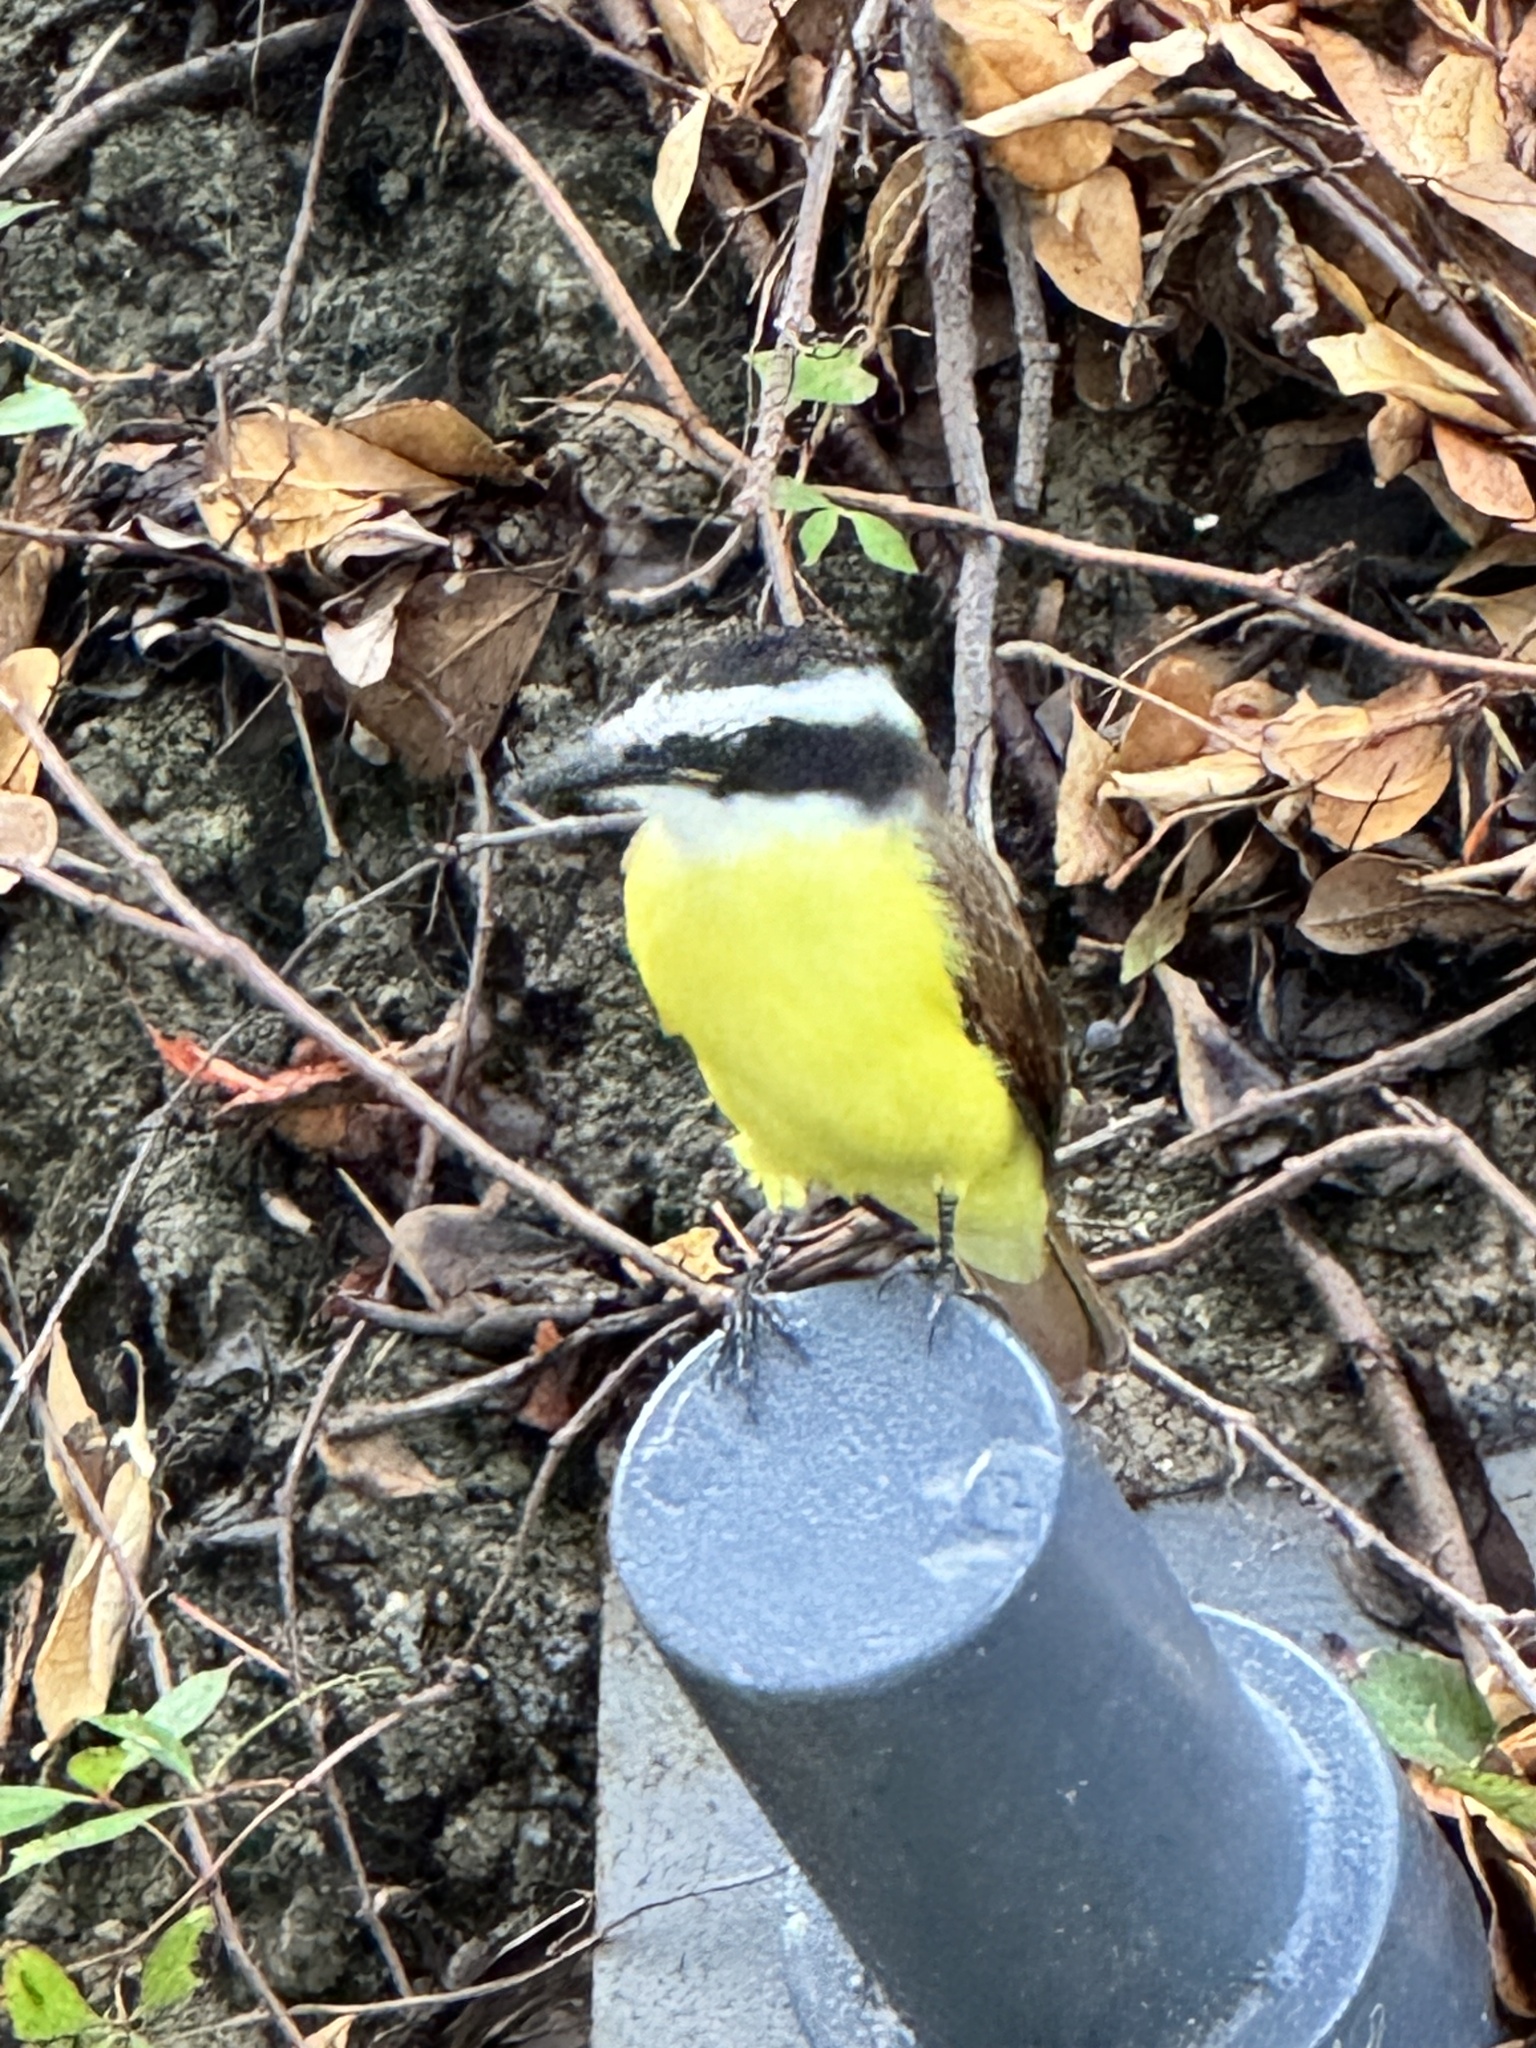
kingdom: Animalia
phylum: Chordata
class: Aves
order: Passeriformes
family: Tyrannidae
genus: Pitangus
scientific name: Pitangus sulphuratus
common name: Great kiskadee
